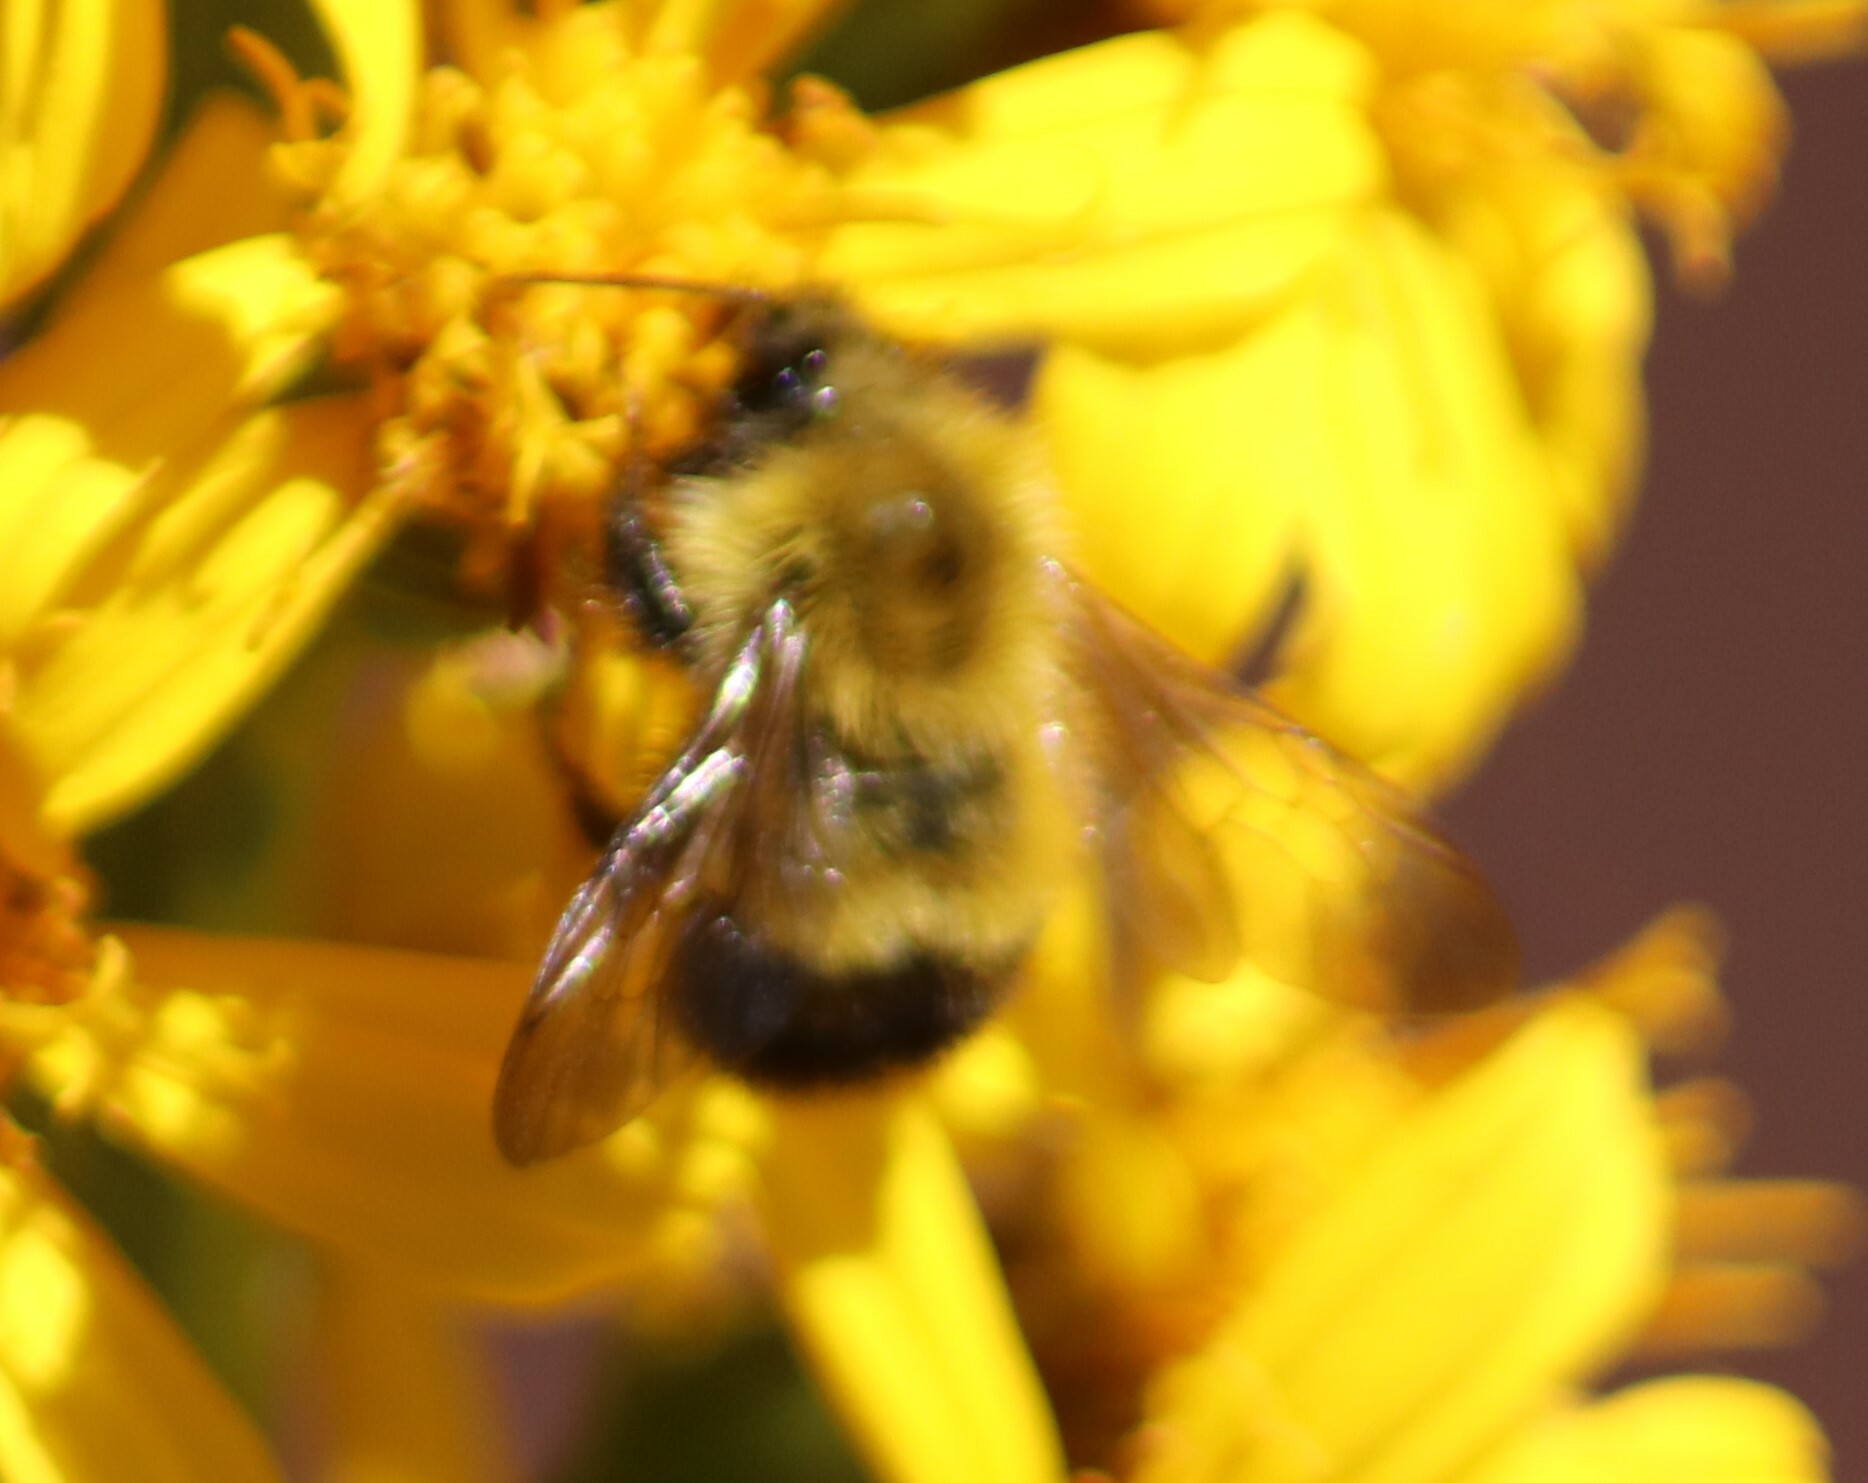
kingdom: Animalia
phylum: Arthropoda
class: Insecta
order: Hymenoptera
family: Apidae
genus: Bombus
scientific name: Bombus perplexus
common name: Confusing bumble bee
